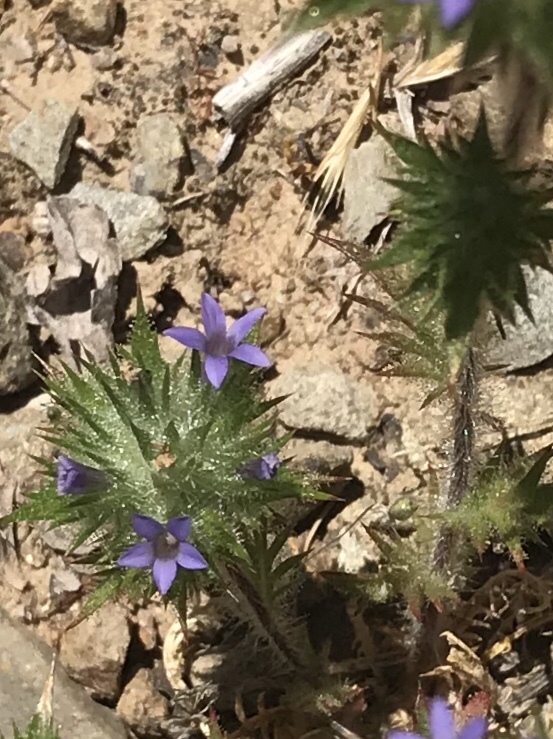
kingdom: Plantae
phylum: Tracheophyta
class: Magnoliopsida
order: Ericales
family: Polemoniaceae
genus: Navarretia
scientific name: Navarretia squarrosa
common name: Skunkweed
